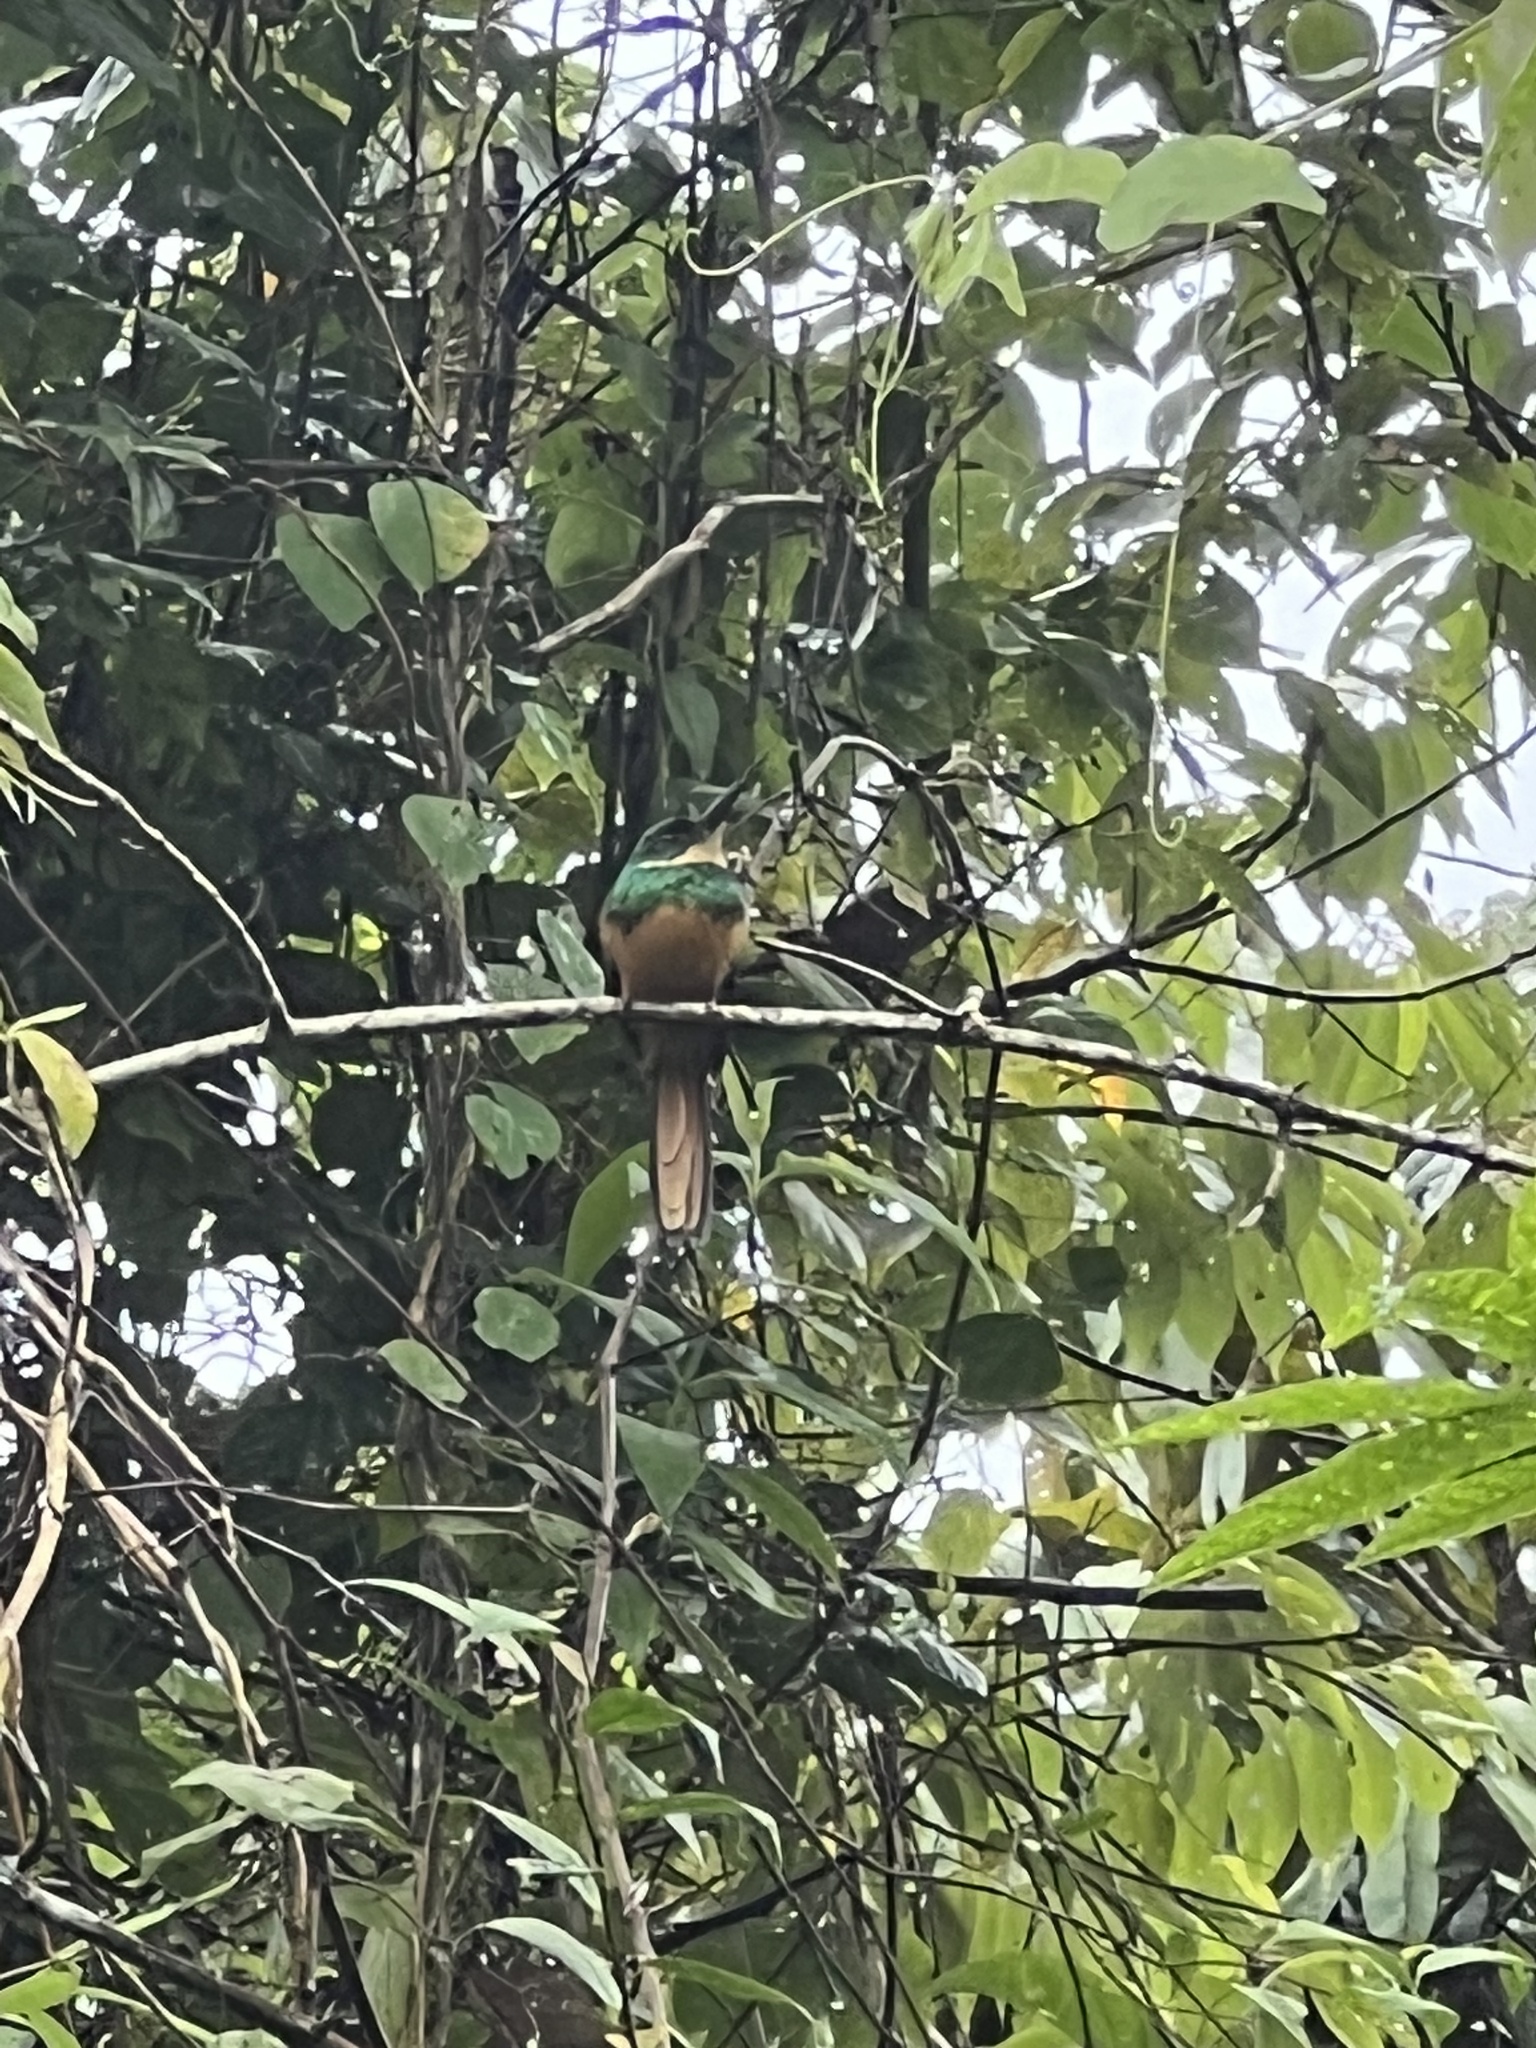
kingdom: Animalia
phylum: Chordata
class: Aves
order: Piciformes
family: Galbulidae
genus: Galbula
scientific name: Galbula ruficauda
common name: Rufous-tailed jacamar
